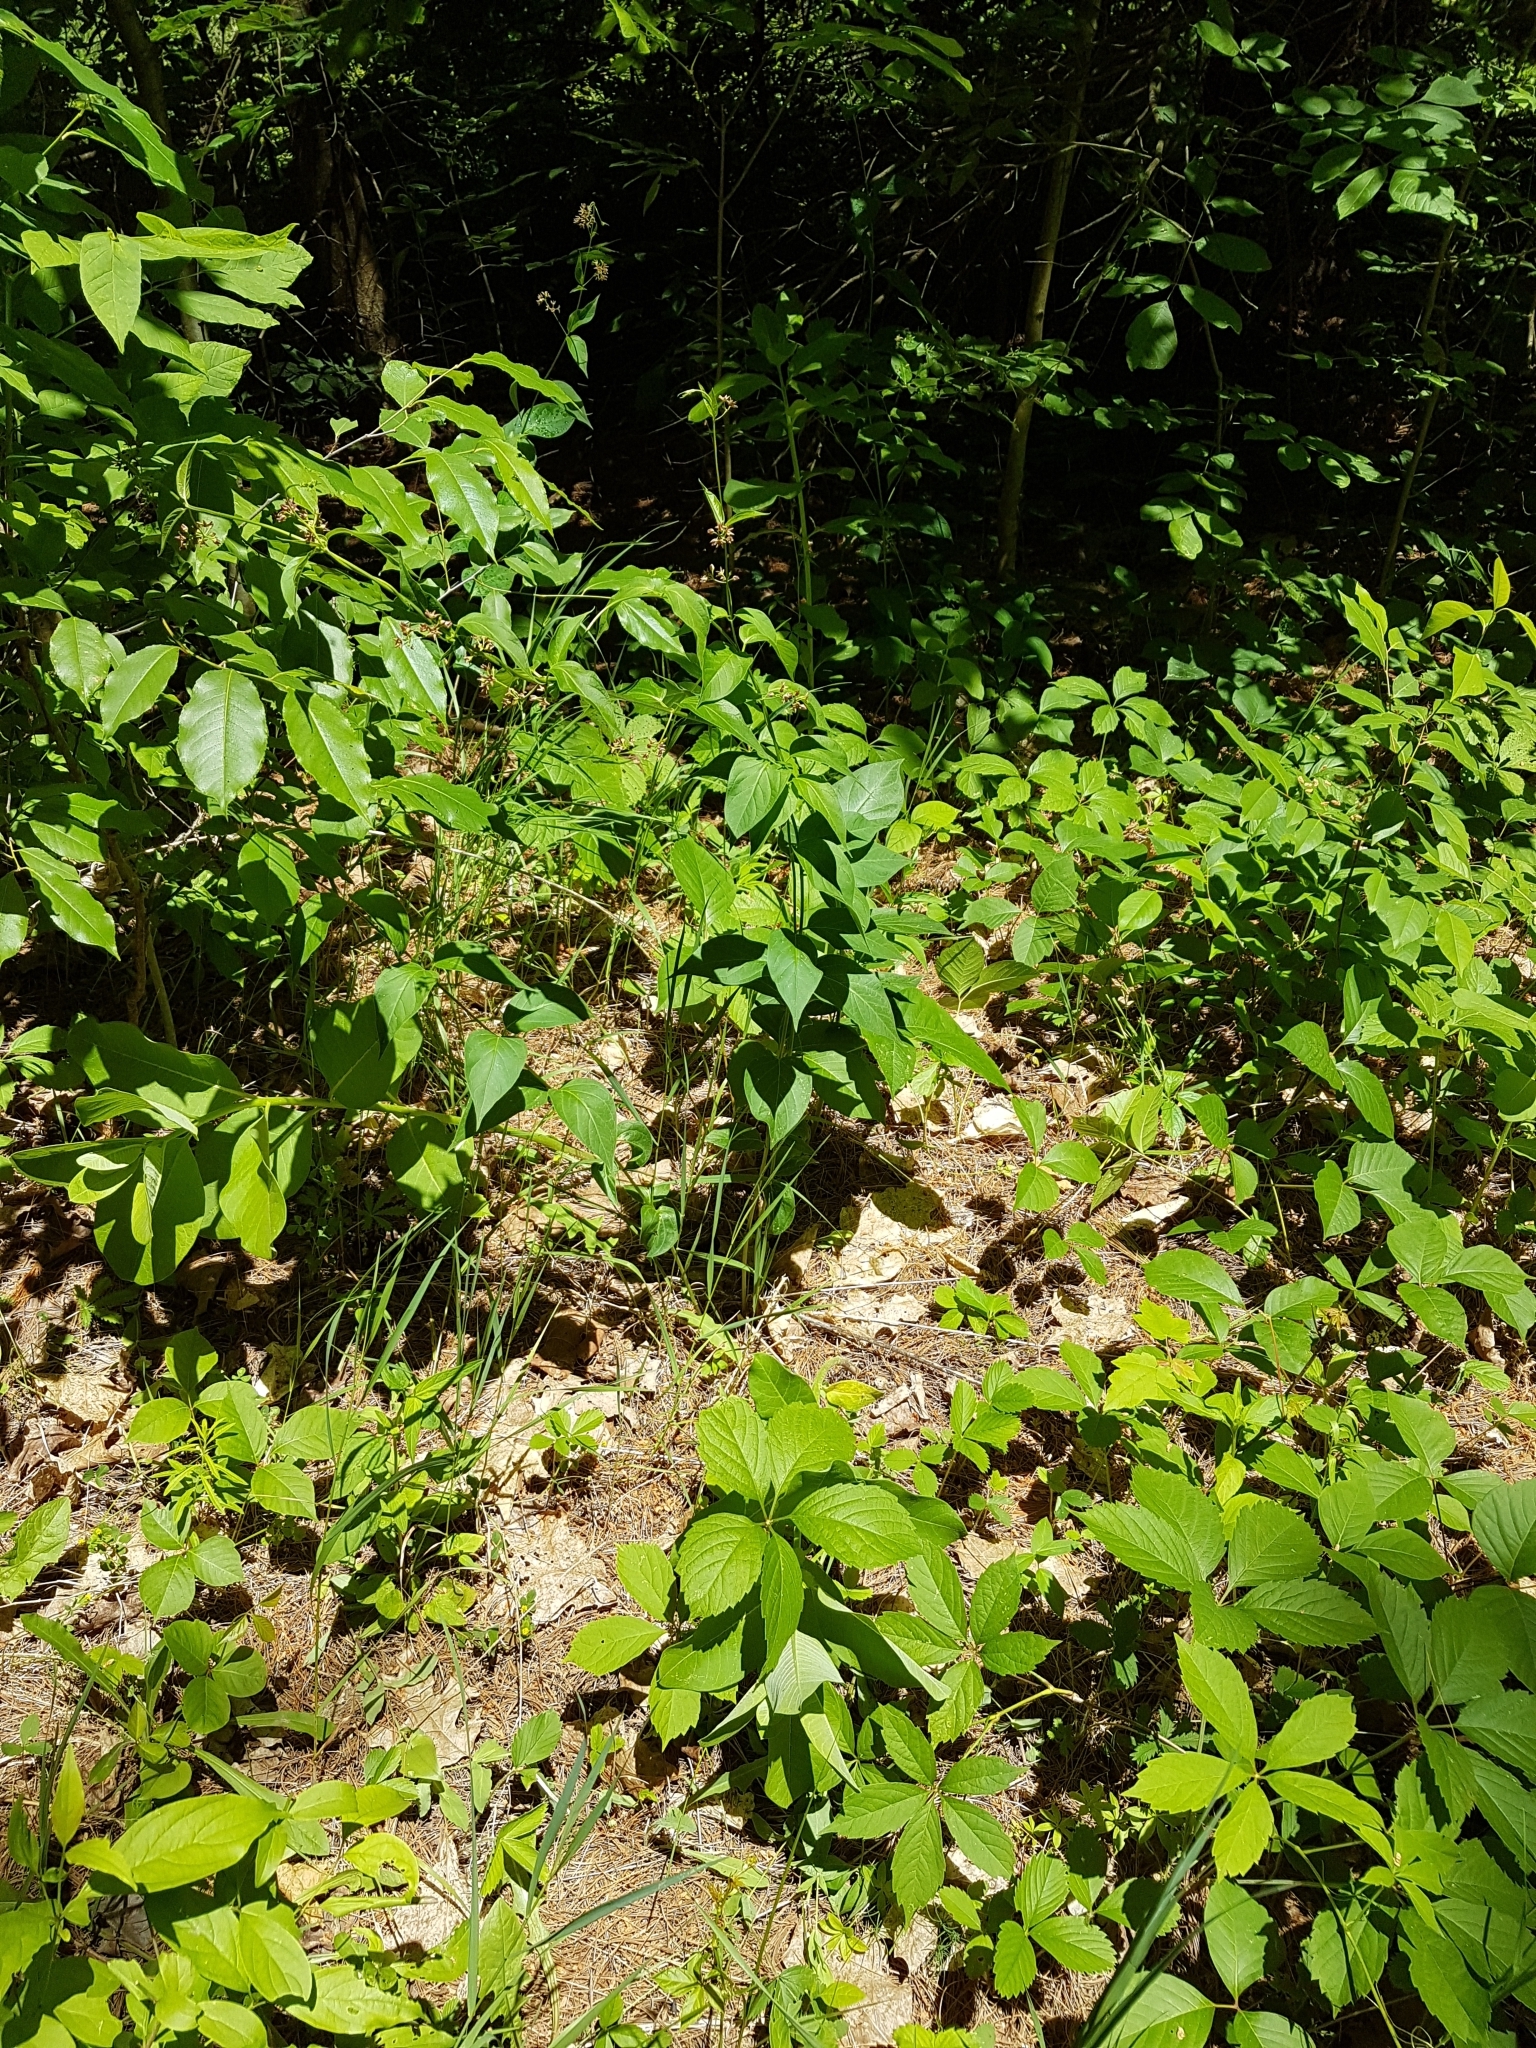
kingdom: Plantae
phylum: Tracheophyta
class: Magnoliopsida
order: Gentianales
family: Apocynaceae
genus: Vincetoxicum
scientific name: Vincetoxicum rossicum
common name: Dog-strangling vine
